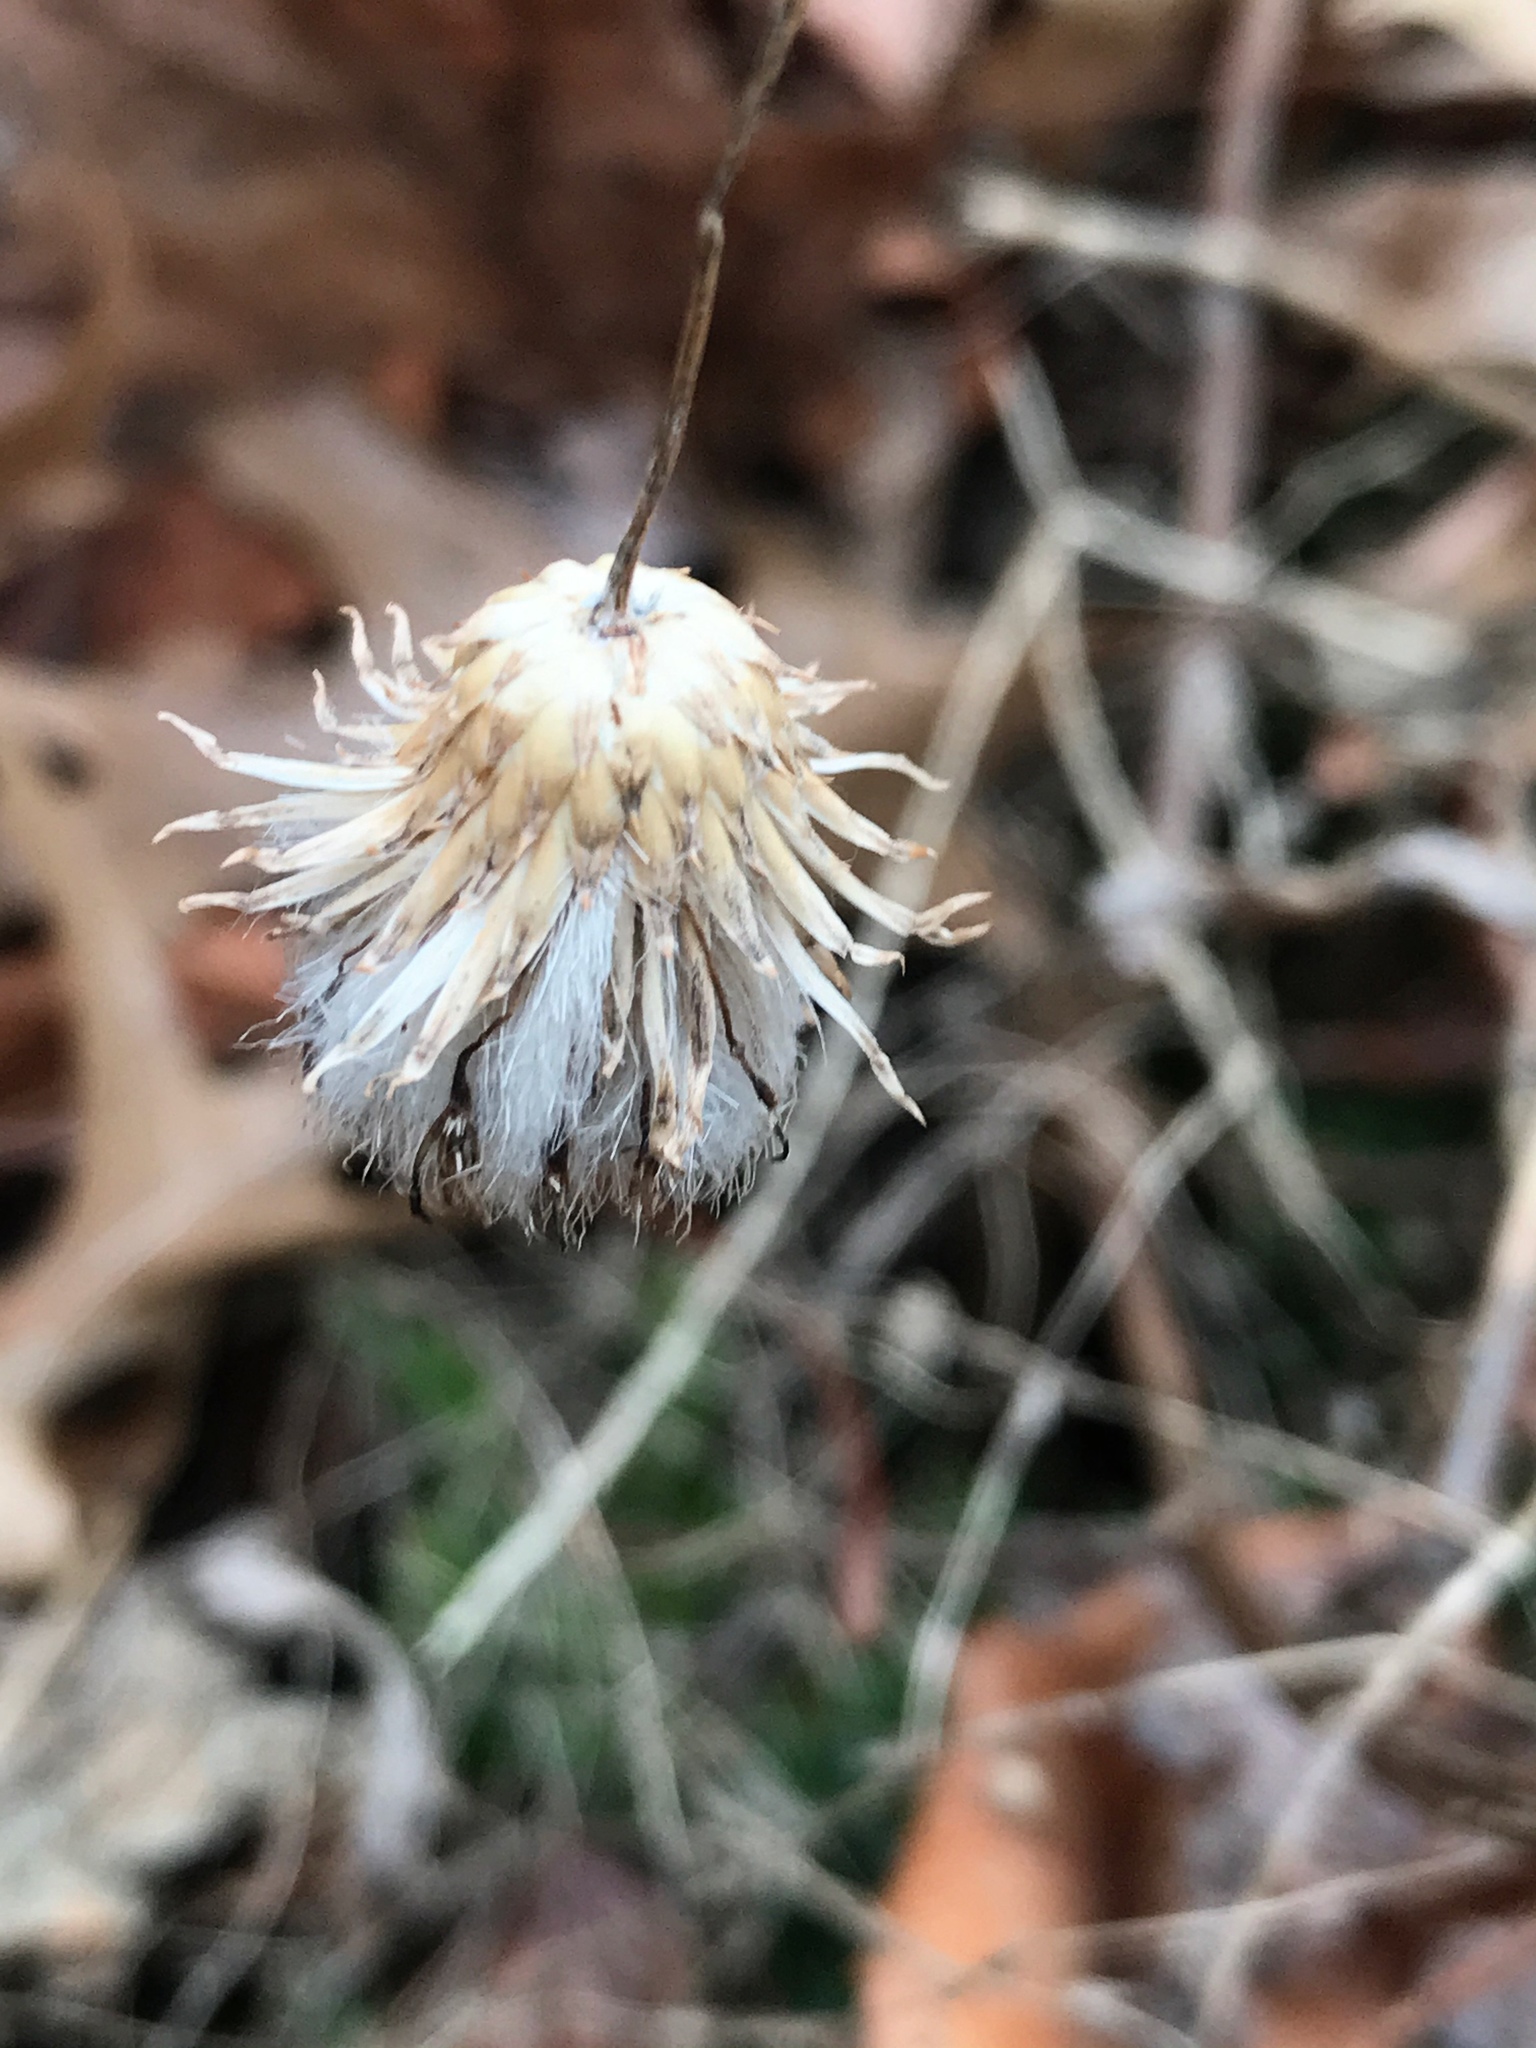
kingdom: Plantae
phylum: Tracheophyta
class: Magnoliopsida
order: Asterales
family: Asteraceae
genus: Cirsium
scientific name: Cirsium arvense
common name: Creeping thistle
